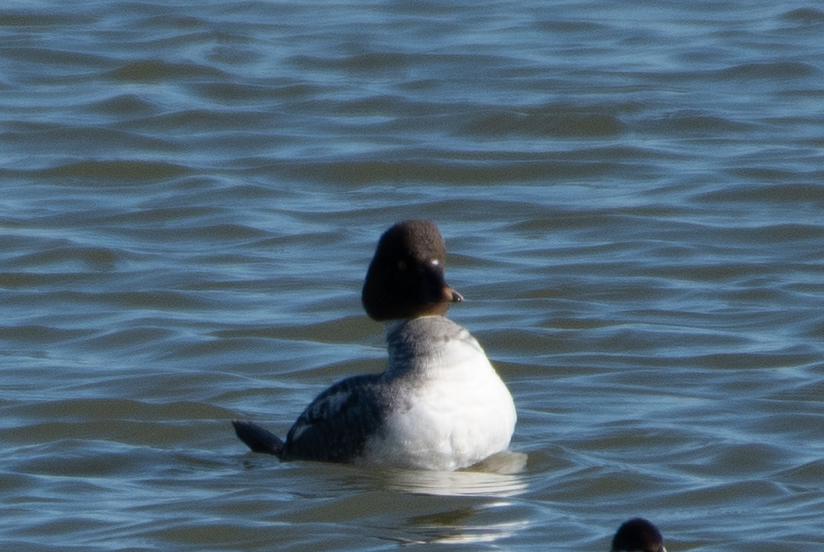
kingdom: Animalia
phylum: Chordata
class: Aves
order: Anseriformes
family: Anatidae
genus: Bucephala
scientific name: Bucephala clangula
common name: Common goldeneye
